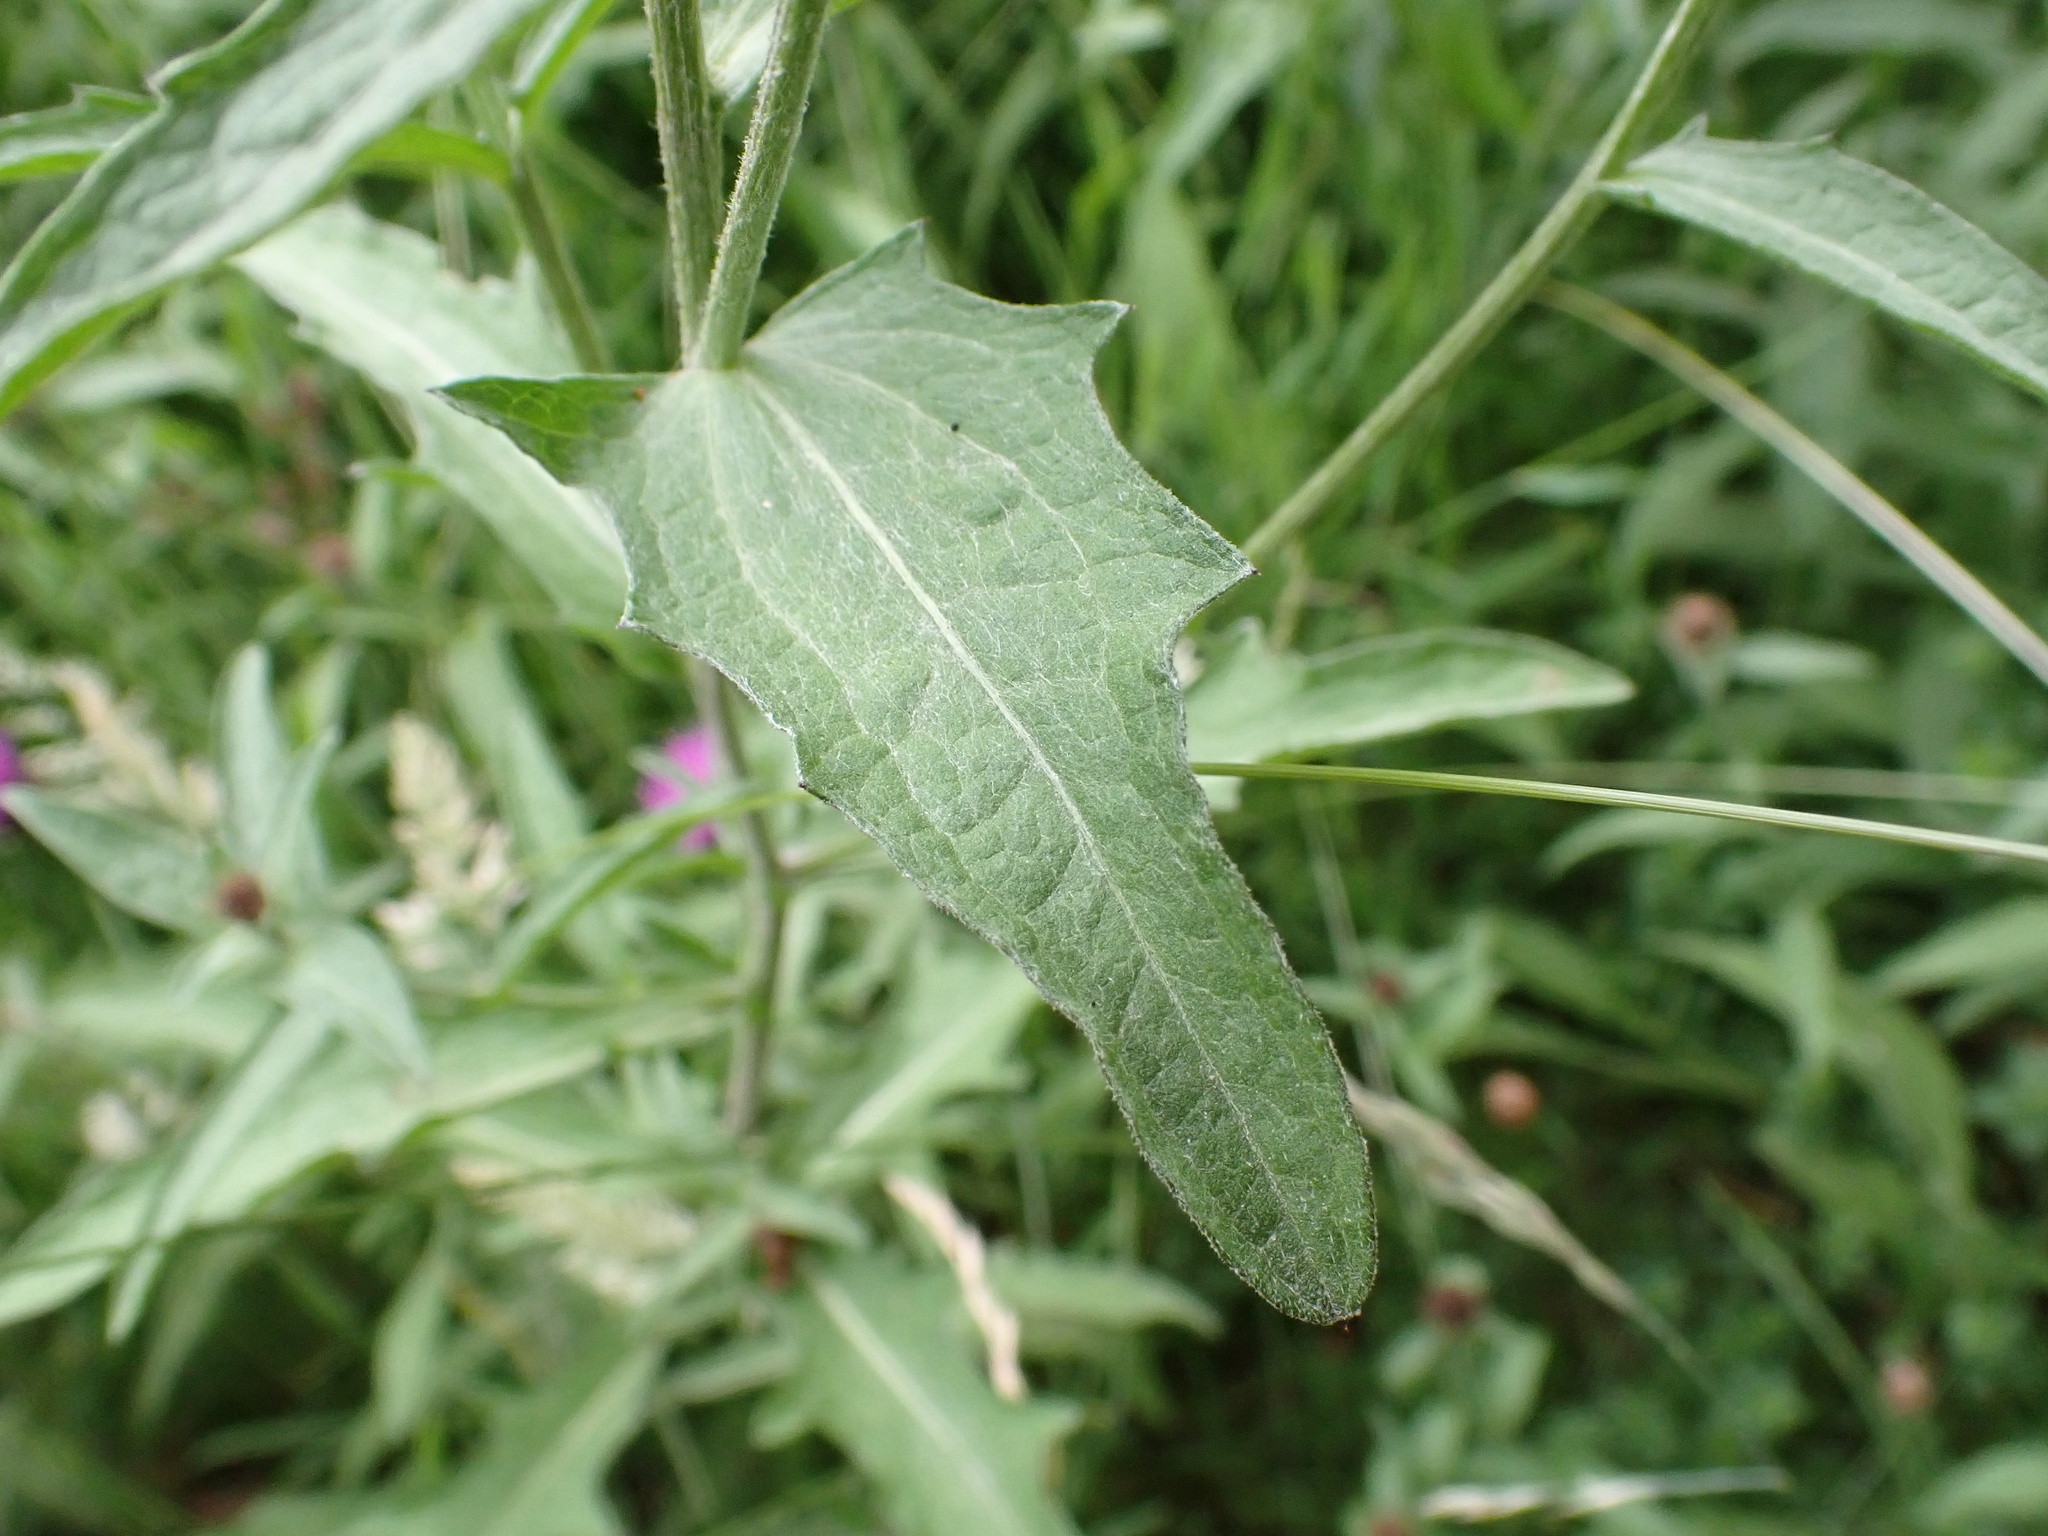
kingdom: Plantae
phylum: Tracheophyta
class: Magnoliopsida
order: Asterales
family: Asteraceae
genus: Centaurea
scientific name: Centaurea nigra
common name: Lesser knapweed
